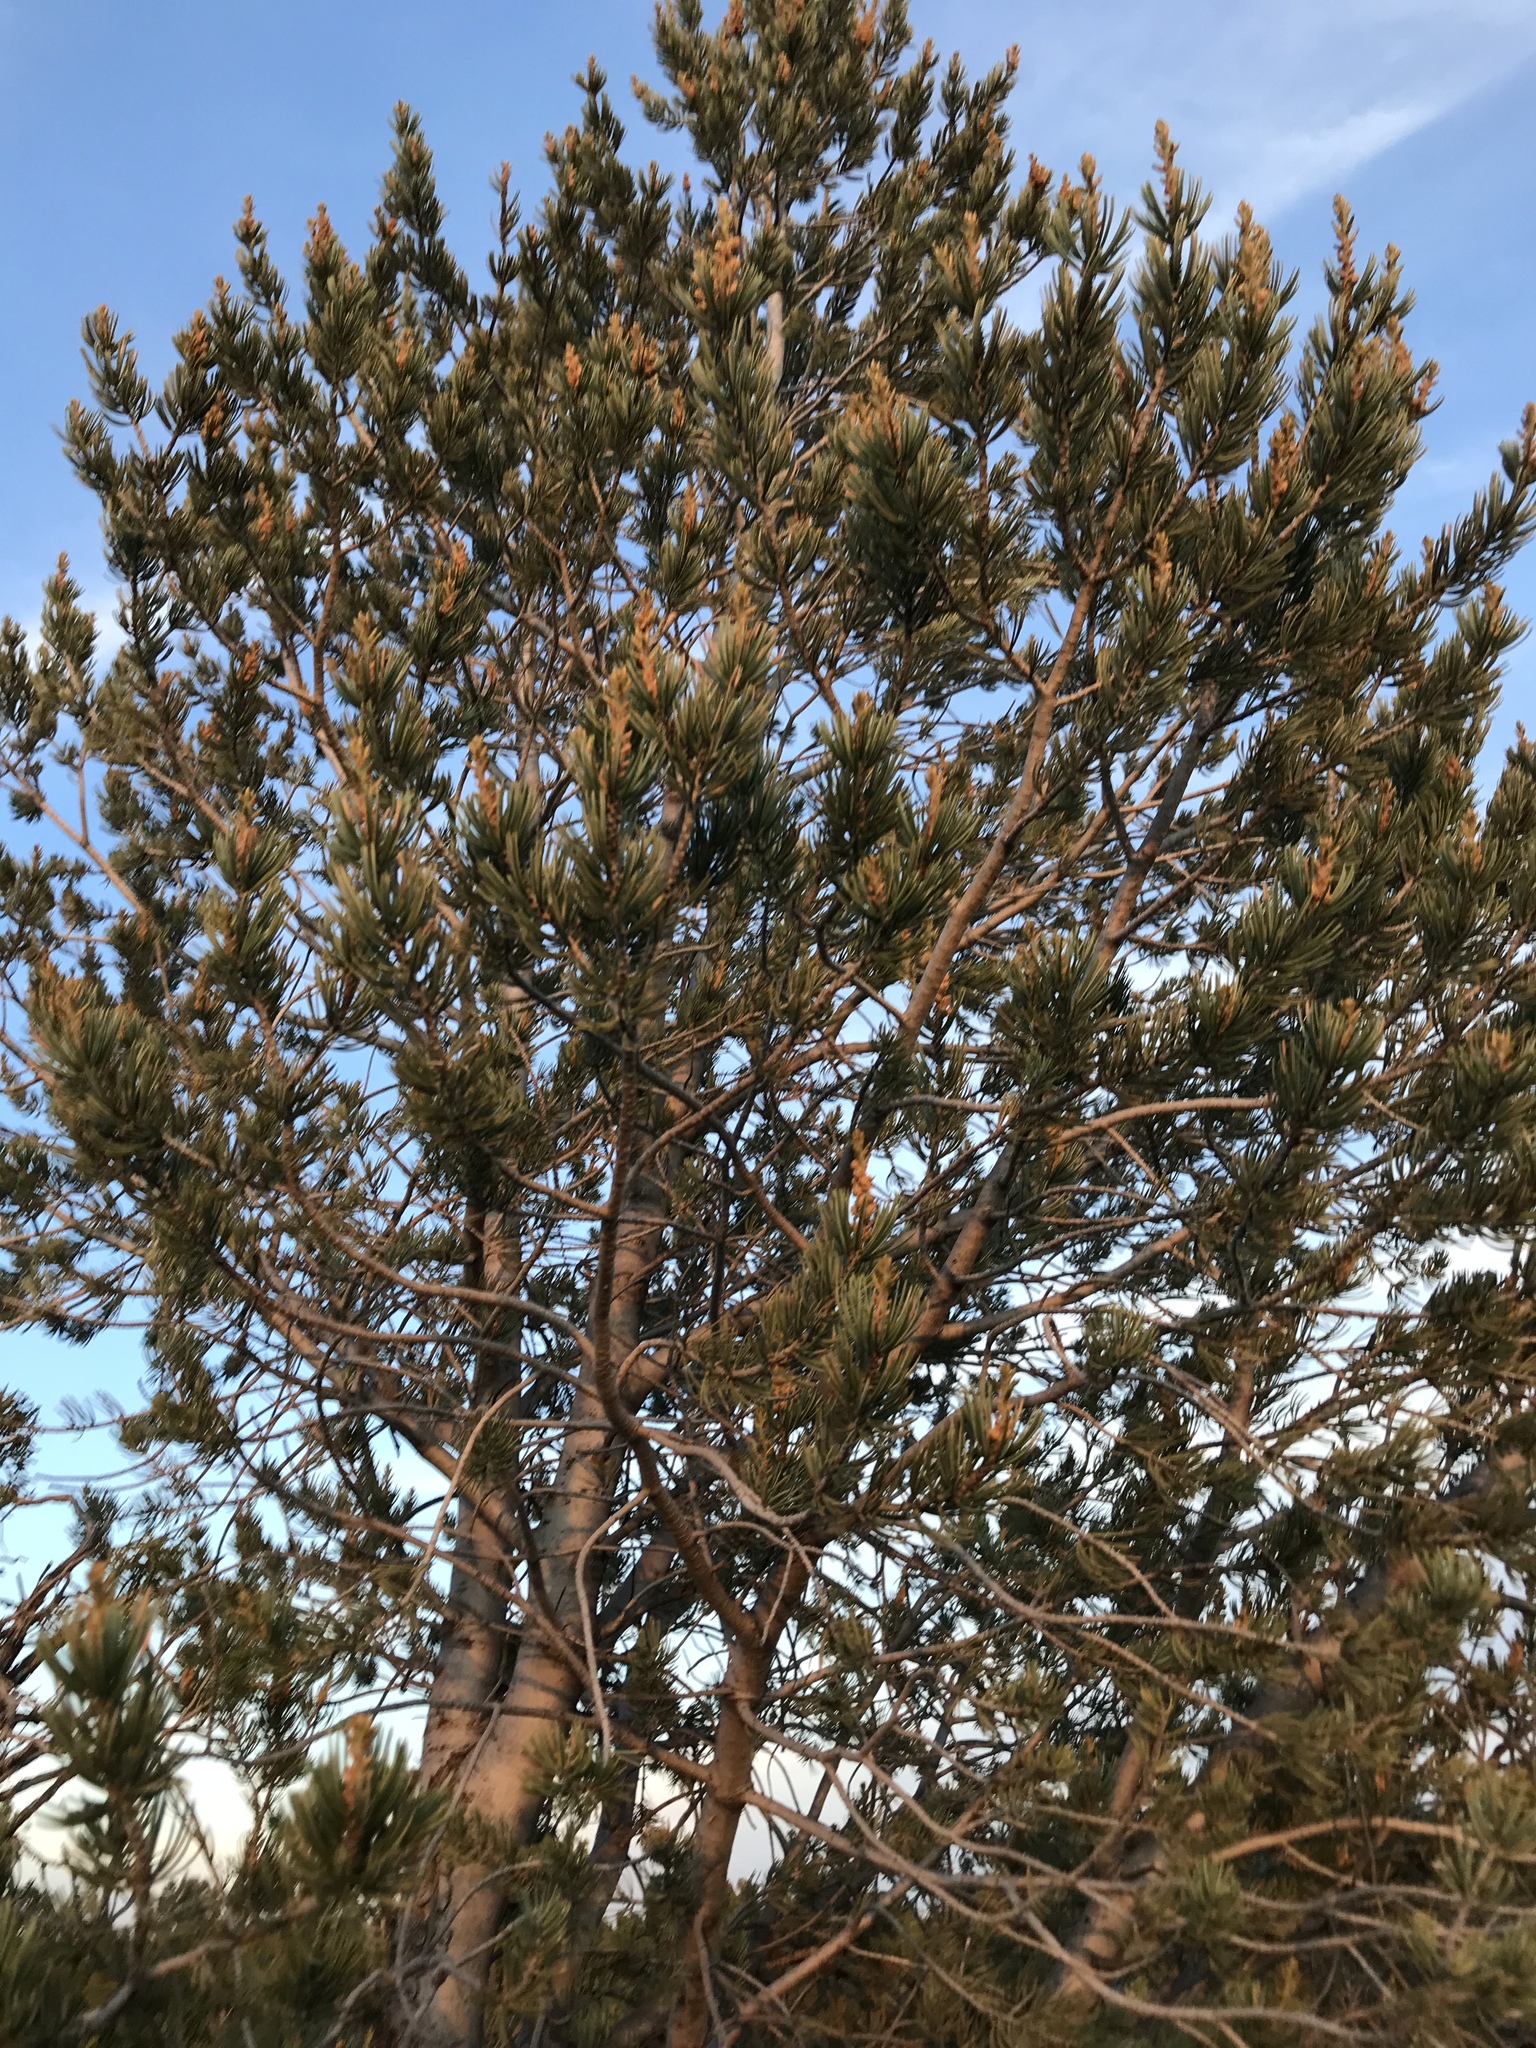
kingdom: Plantae
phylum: Tracheophyta
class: Pinopsida
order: Pinales
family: Pinaceae
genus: Pinus
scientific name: Pinus quadrifolia
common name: Parry pinyon
